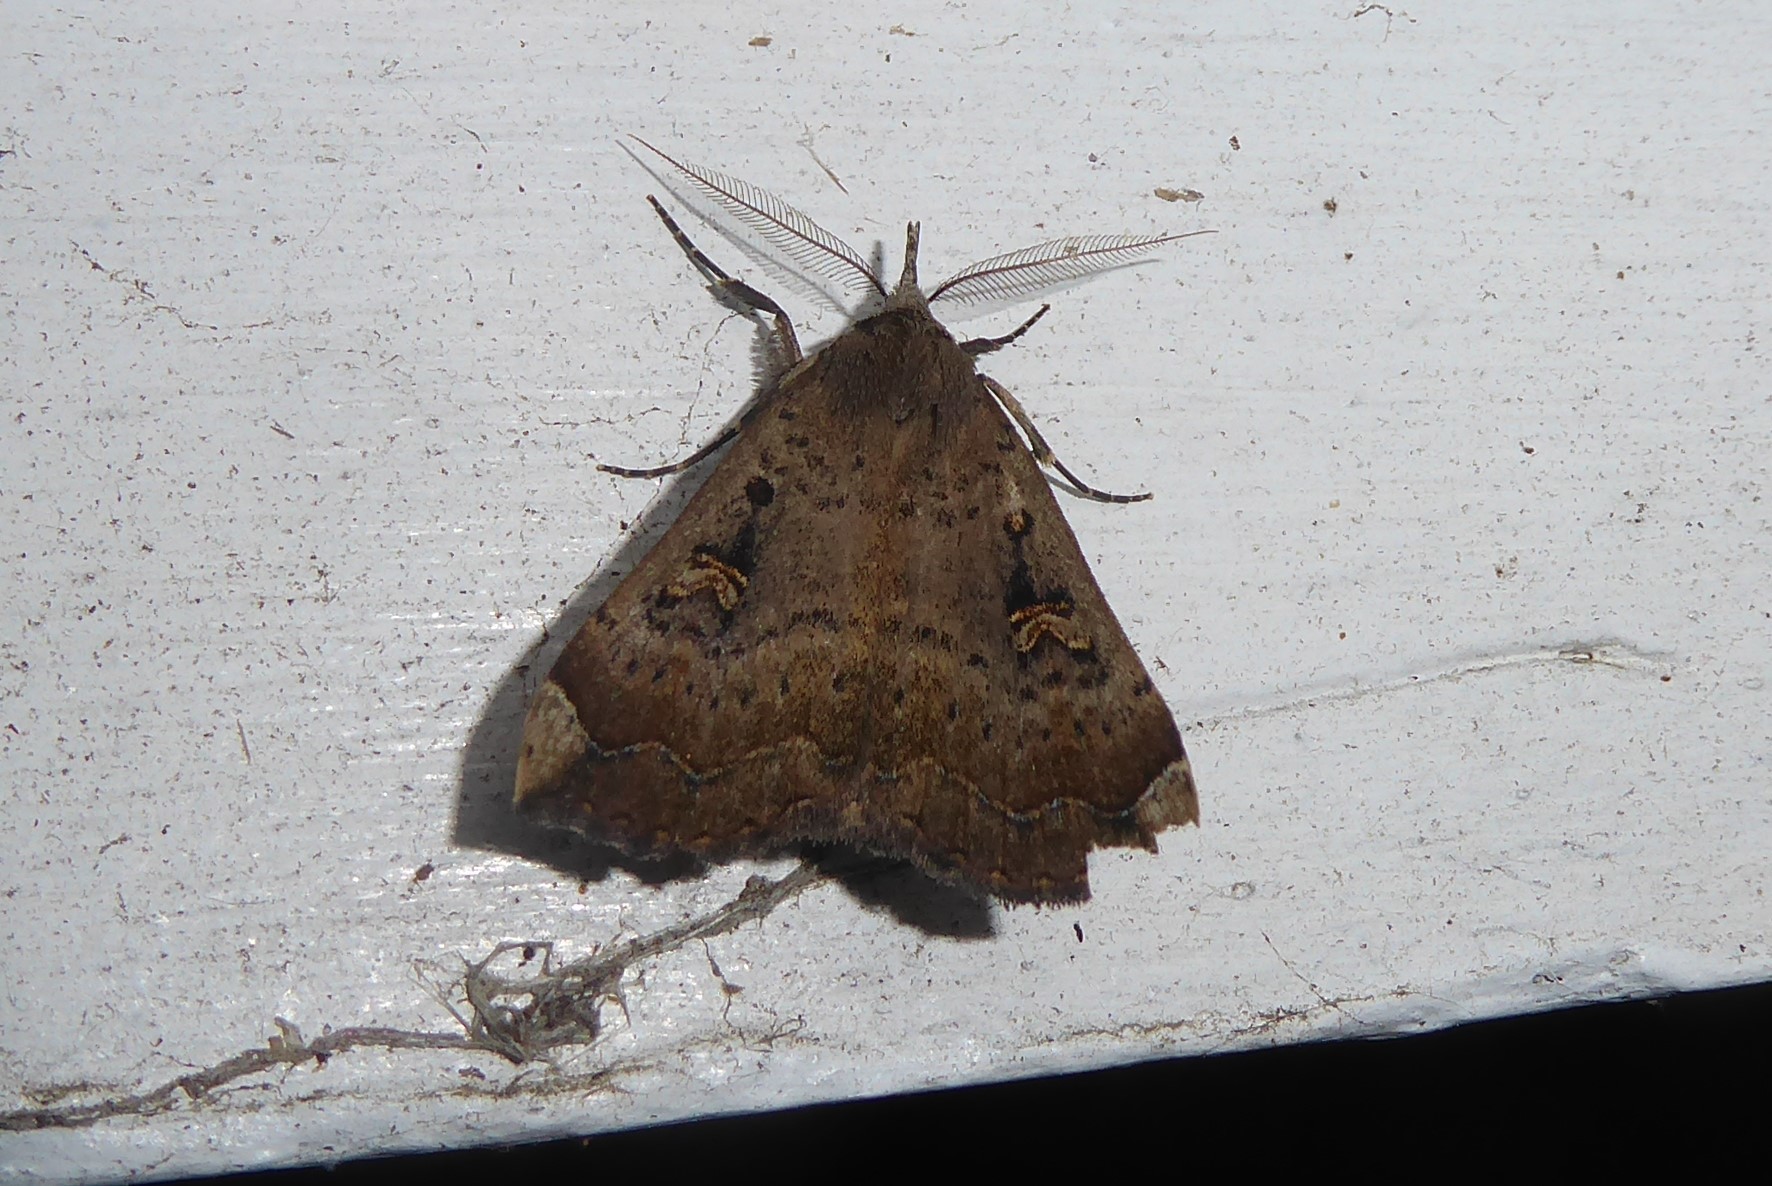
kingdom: Animalia
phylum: Arthropoda
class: Insecta
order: Lepidoptera
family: Erebidae
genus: Rhapsa
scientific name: Rhapsa scotosialis
